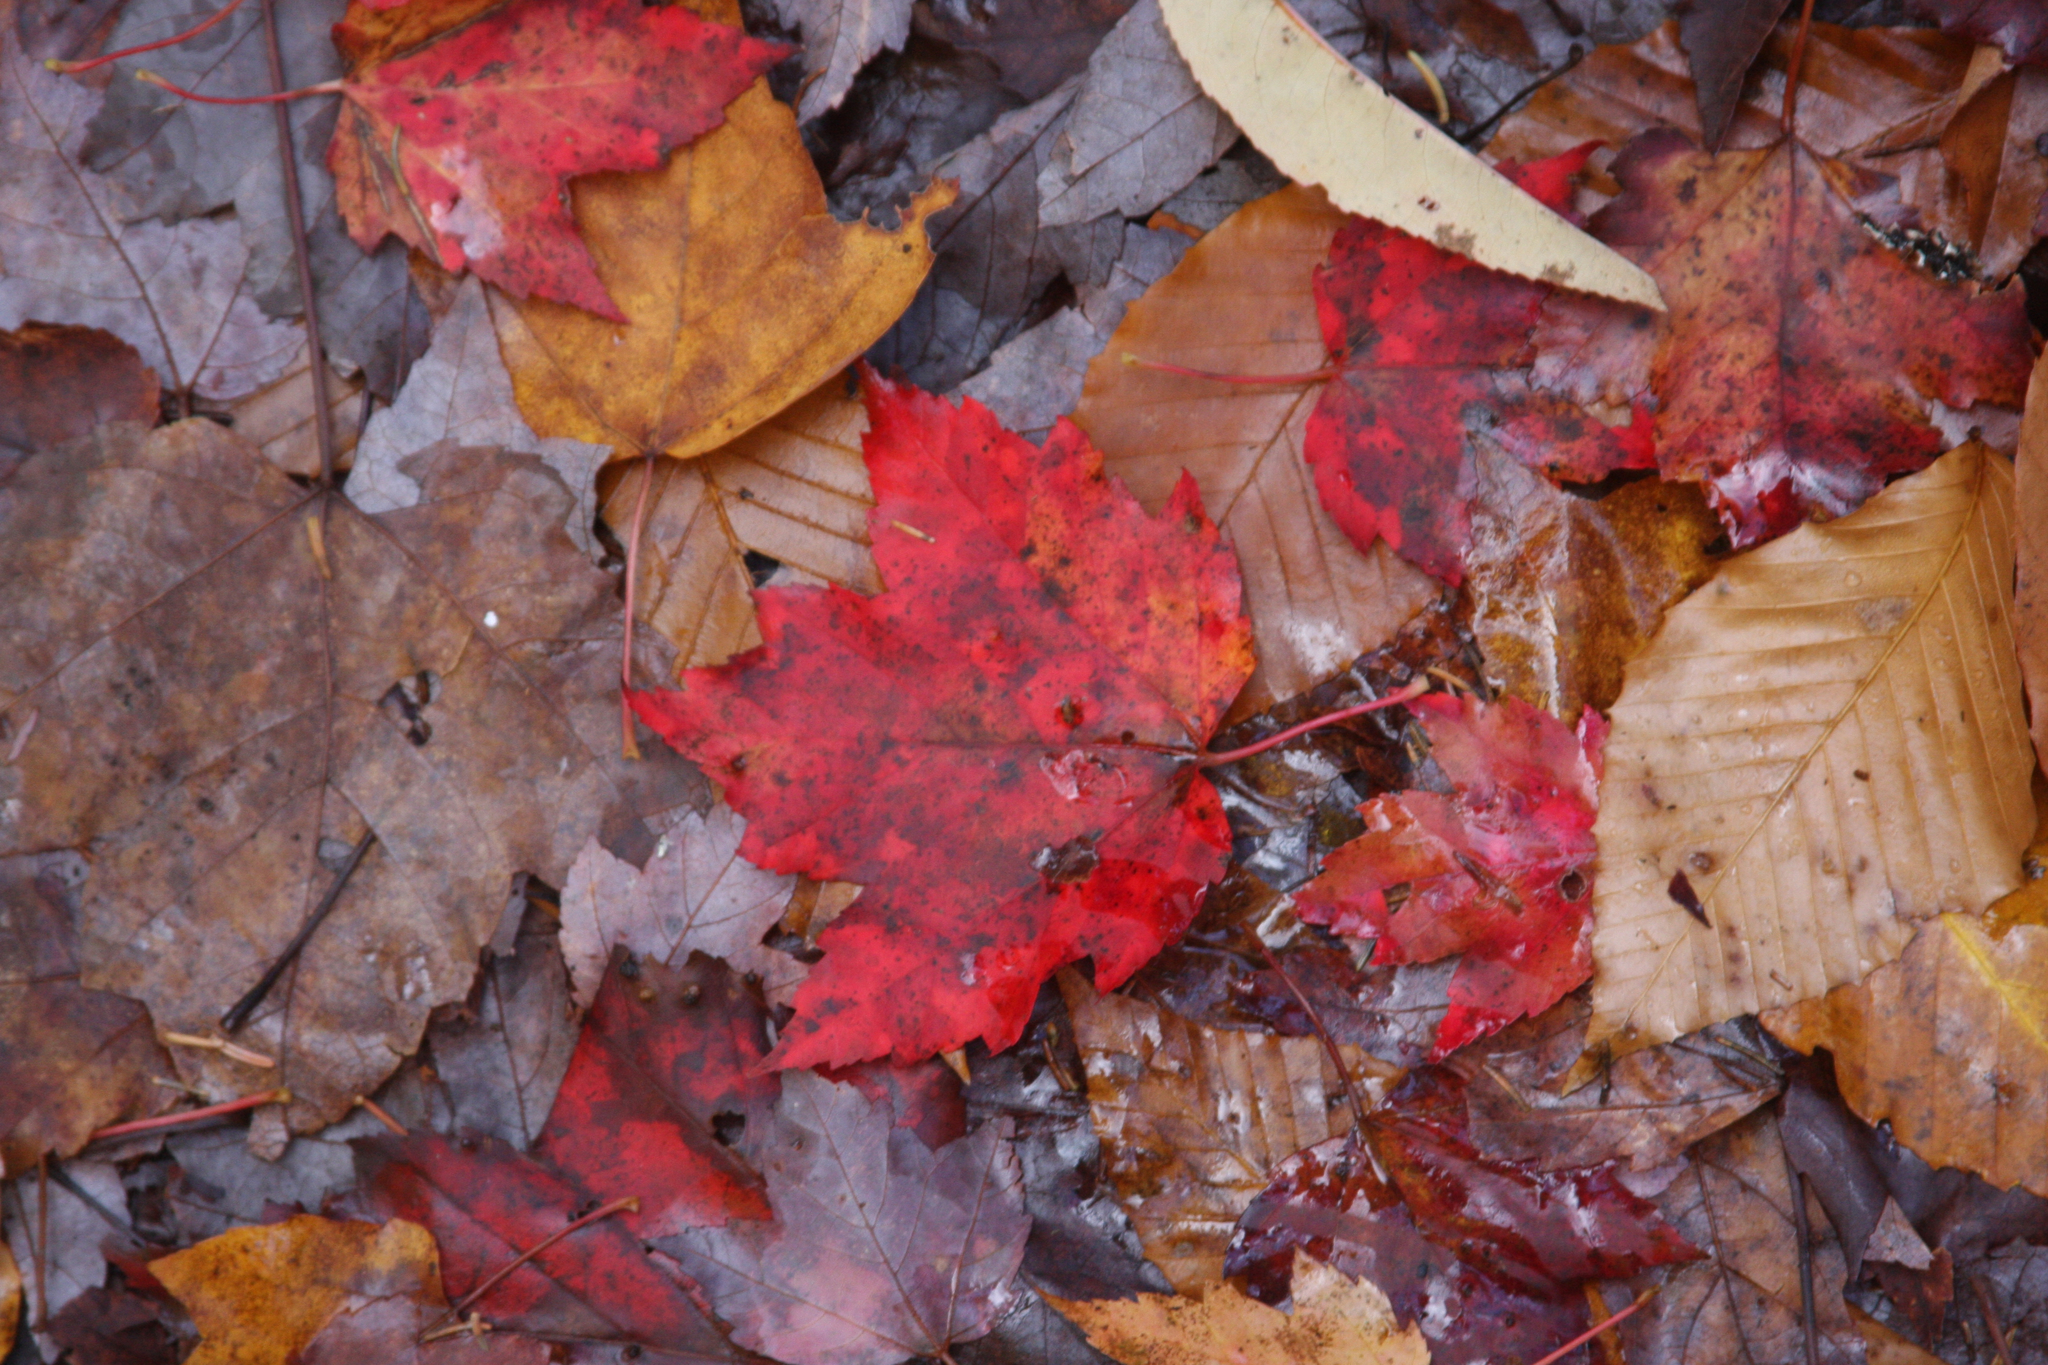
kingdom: Plantae
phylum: Tracheophyta
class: Magnoliopsida
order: Sapindales
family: Sapindaceae
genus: Acer
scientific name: Acer rubrum
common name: Red maple
